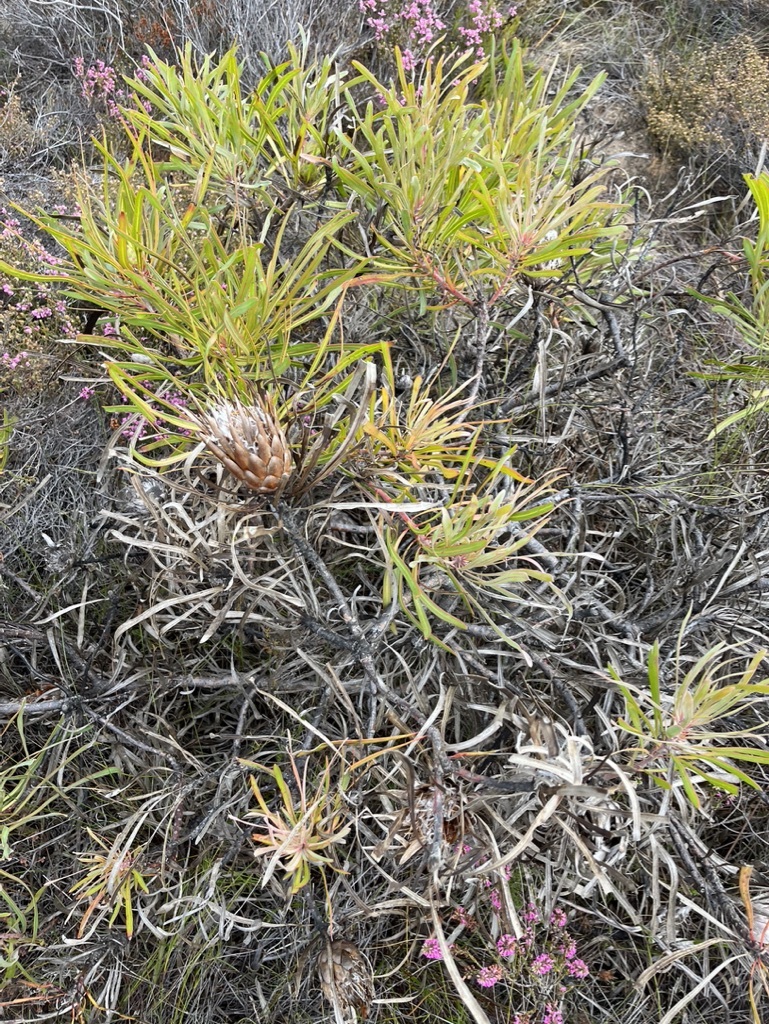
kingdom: Plantae
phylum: Tracheophyta
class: Magnoliopsida
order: Proteales
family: Proteaceae
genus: Protea
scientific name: Protea longifolia
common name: Long-leaf sugarbush
